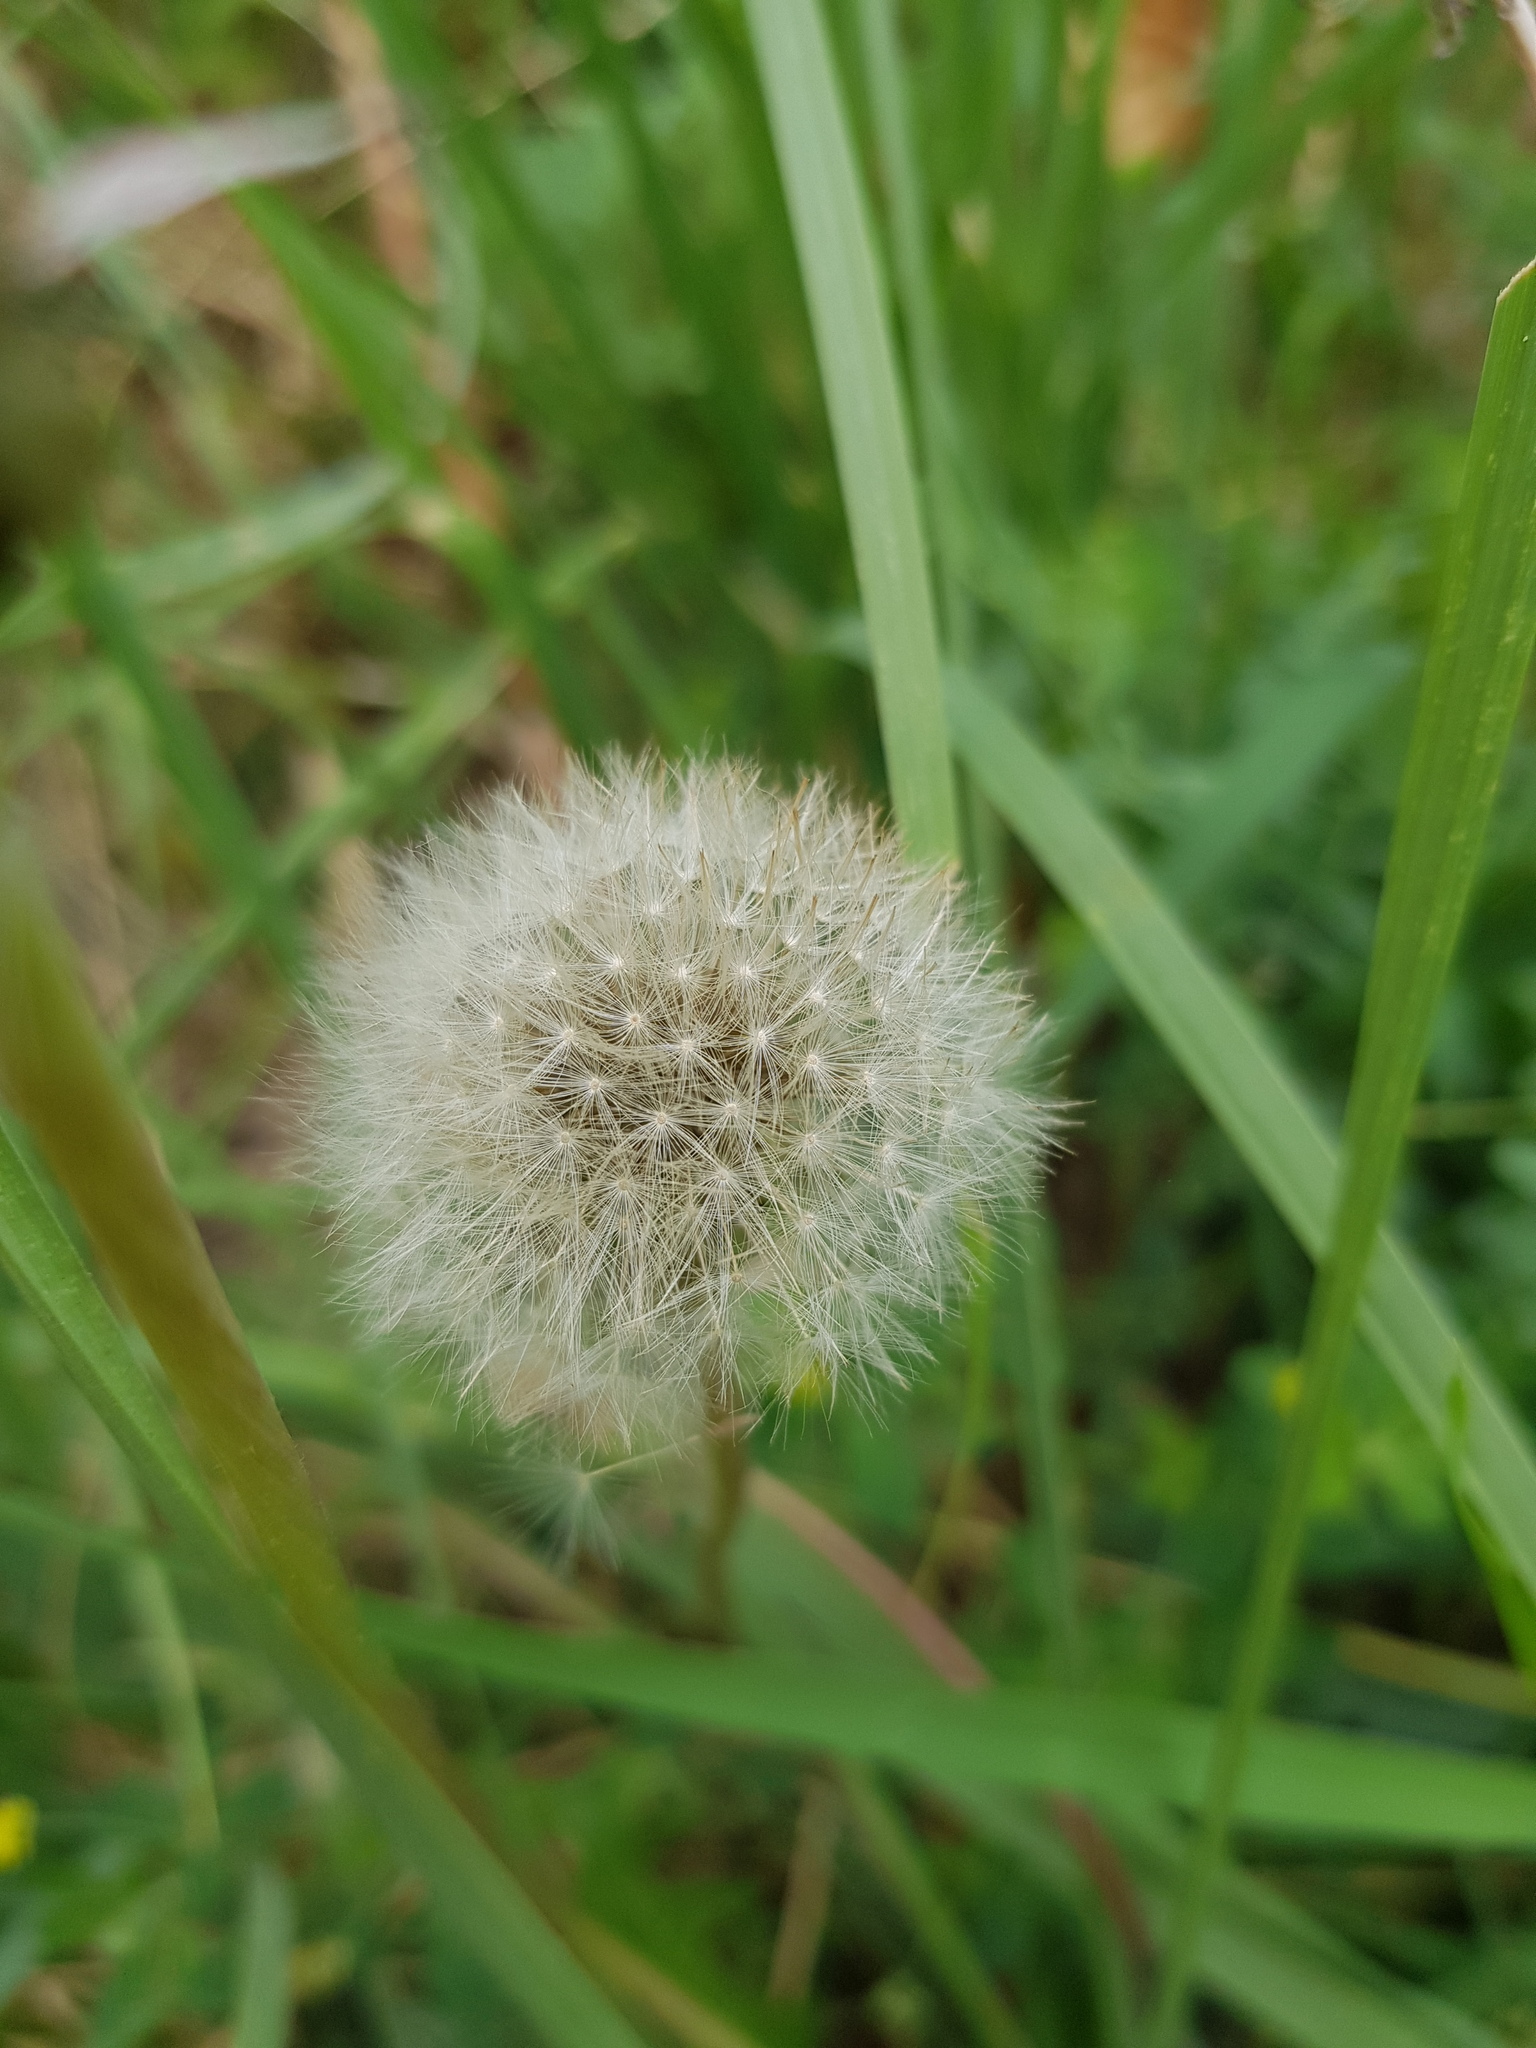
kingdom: Plantae
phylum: Tracheophyta
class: Magnoliopsida
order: Asterales
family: Asteraceae
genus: Taraxacum
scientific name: Taraxacum officinale
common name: Common dandelion
